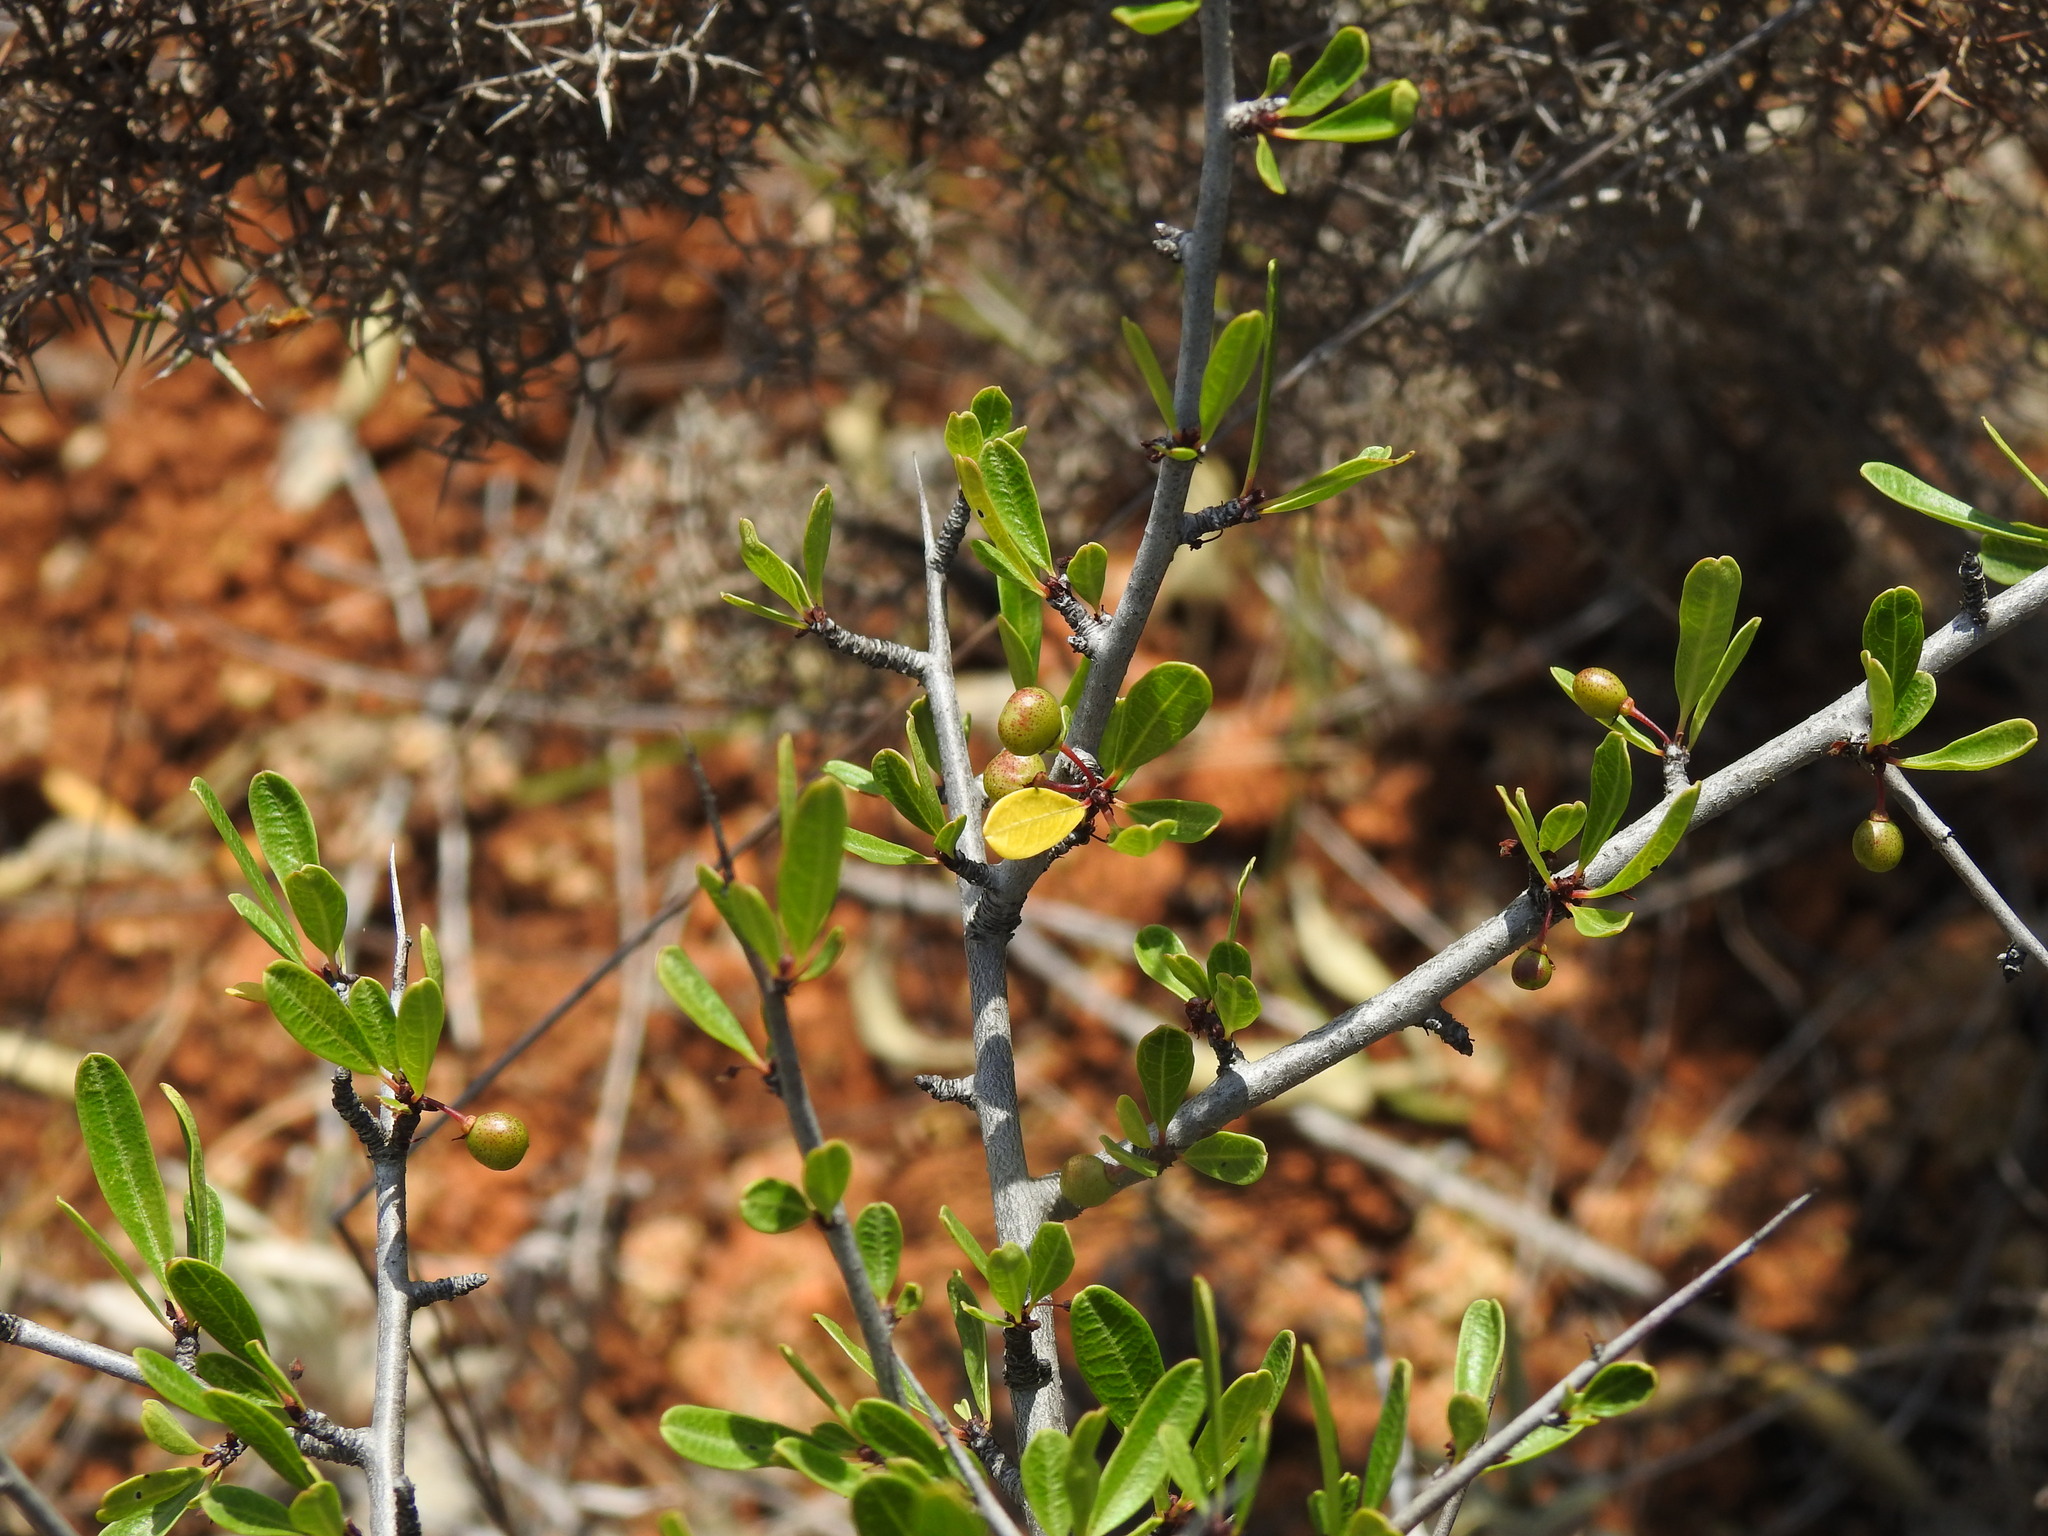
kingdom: Plantae
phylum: Tracheophyta
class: Magnoliopsida
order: Rosales
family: Rhamnaceae
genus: Rhamnus
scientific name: Rhamnus oleoides
